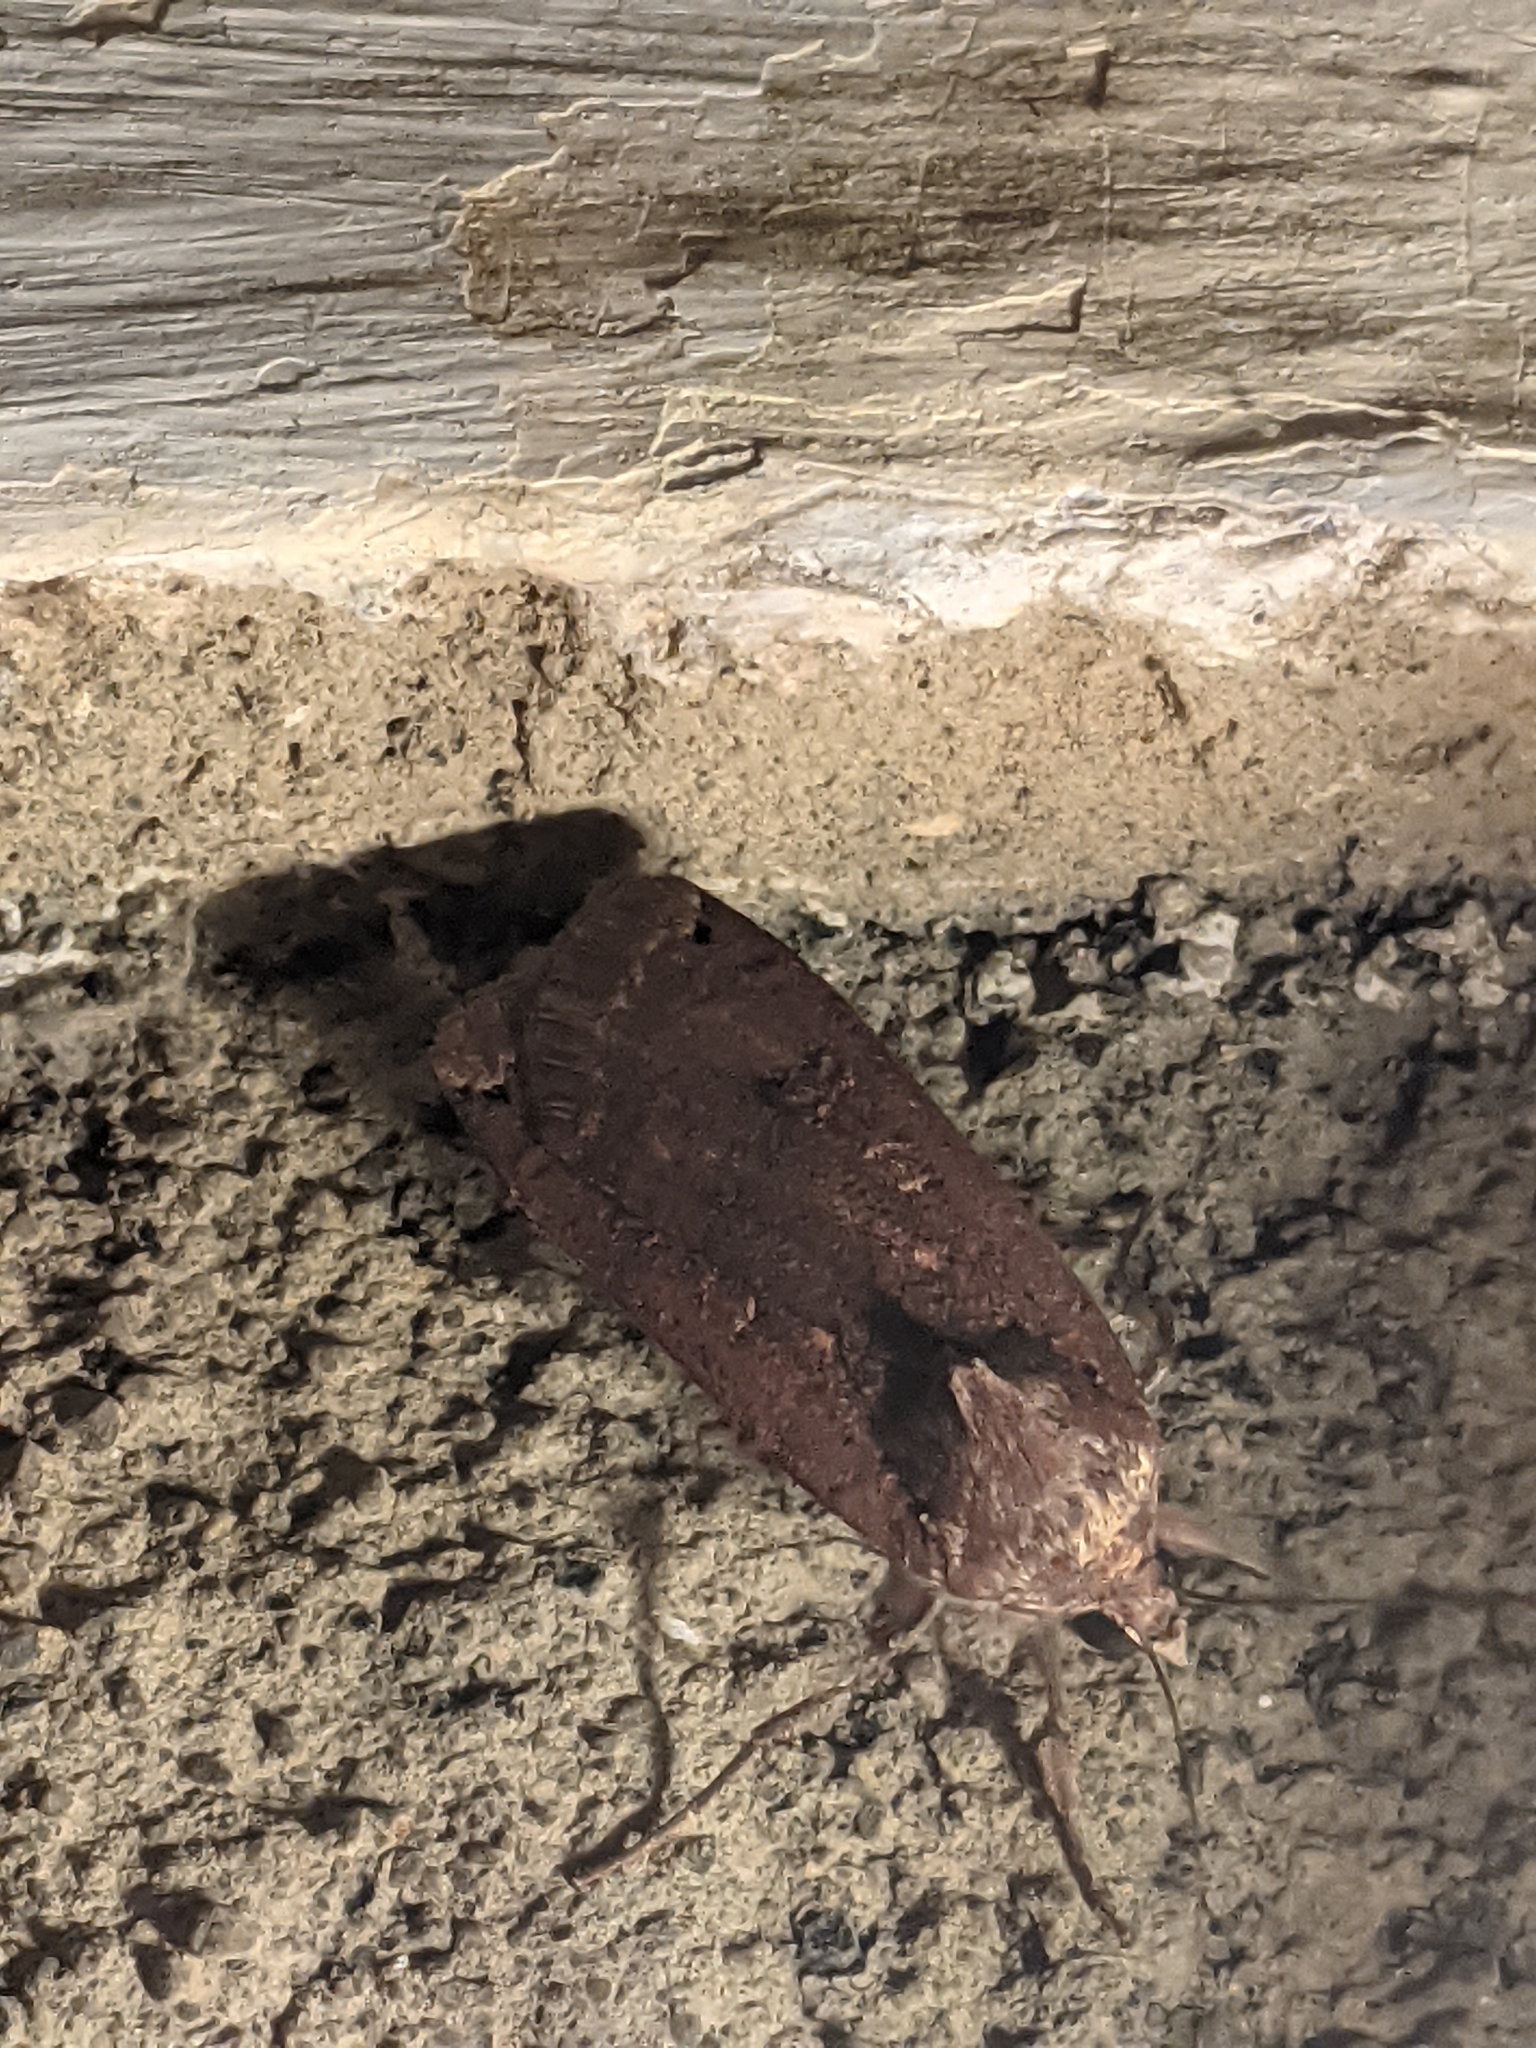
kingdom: Animalia
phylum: Arthropoda
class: Insecta
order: Lepidoptera
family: Noctuidae
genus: Noctua
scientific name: Noctua pronuba
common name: Large yellow underwing
